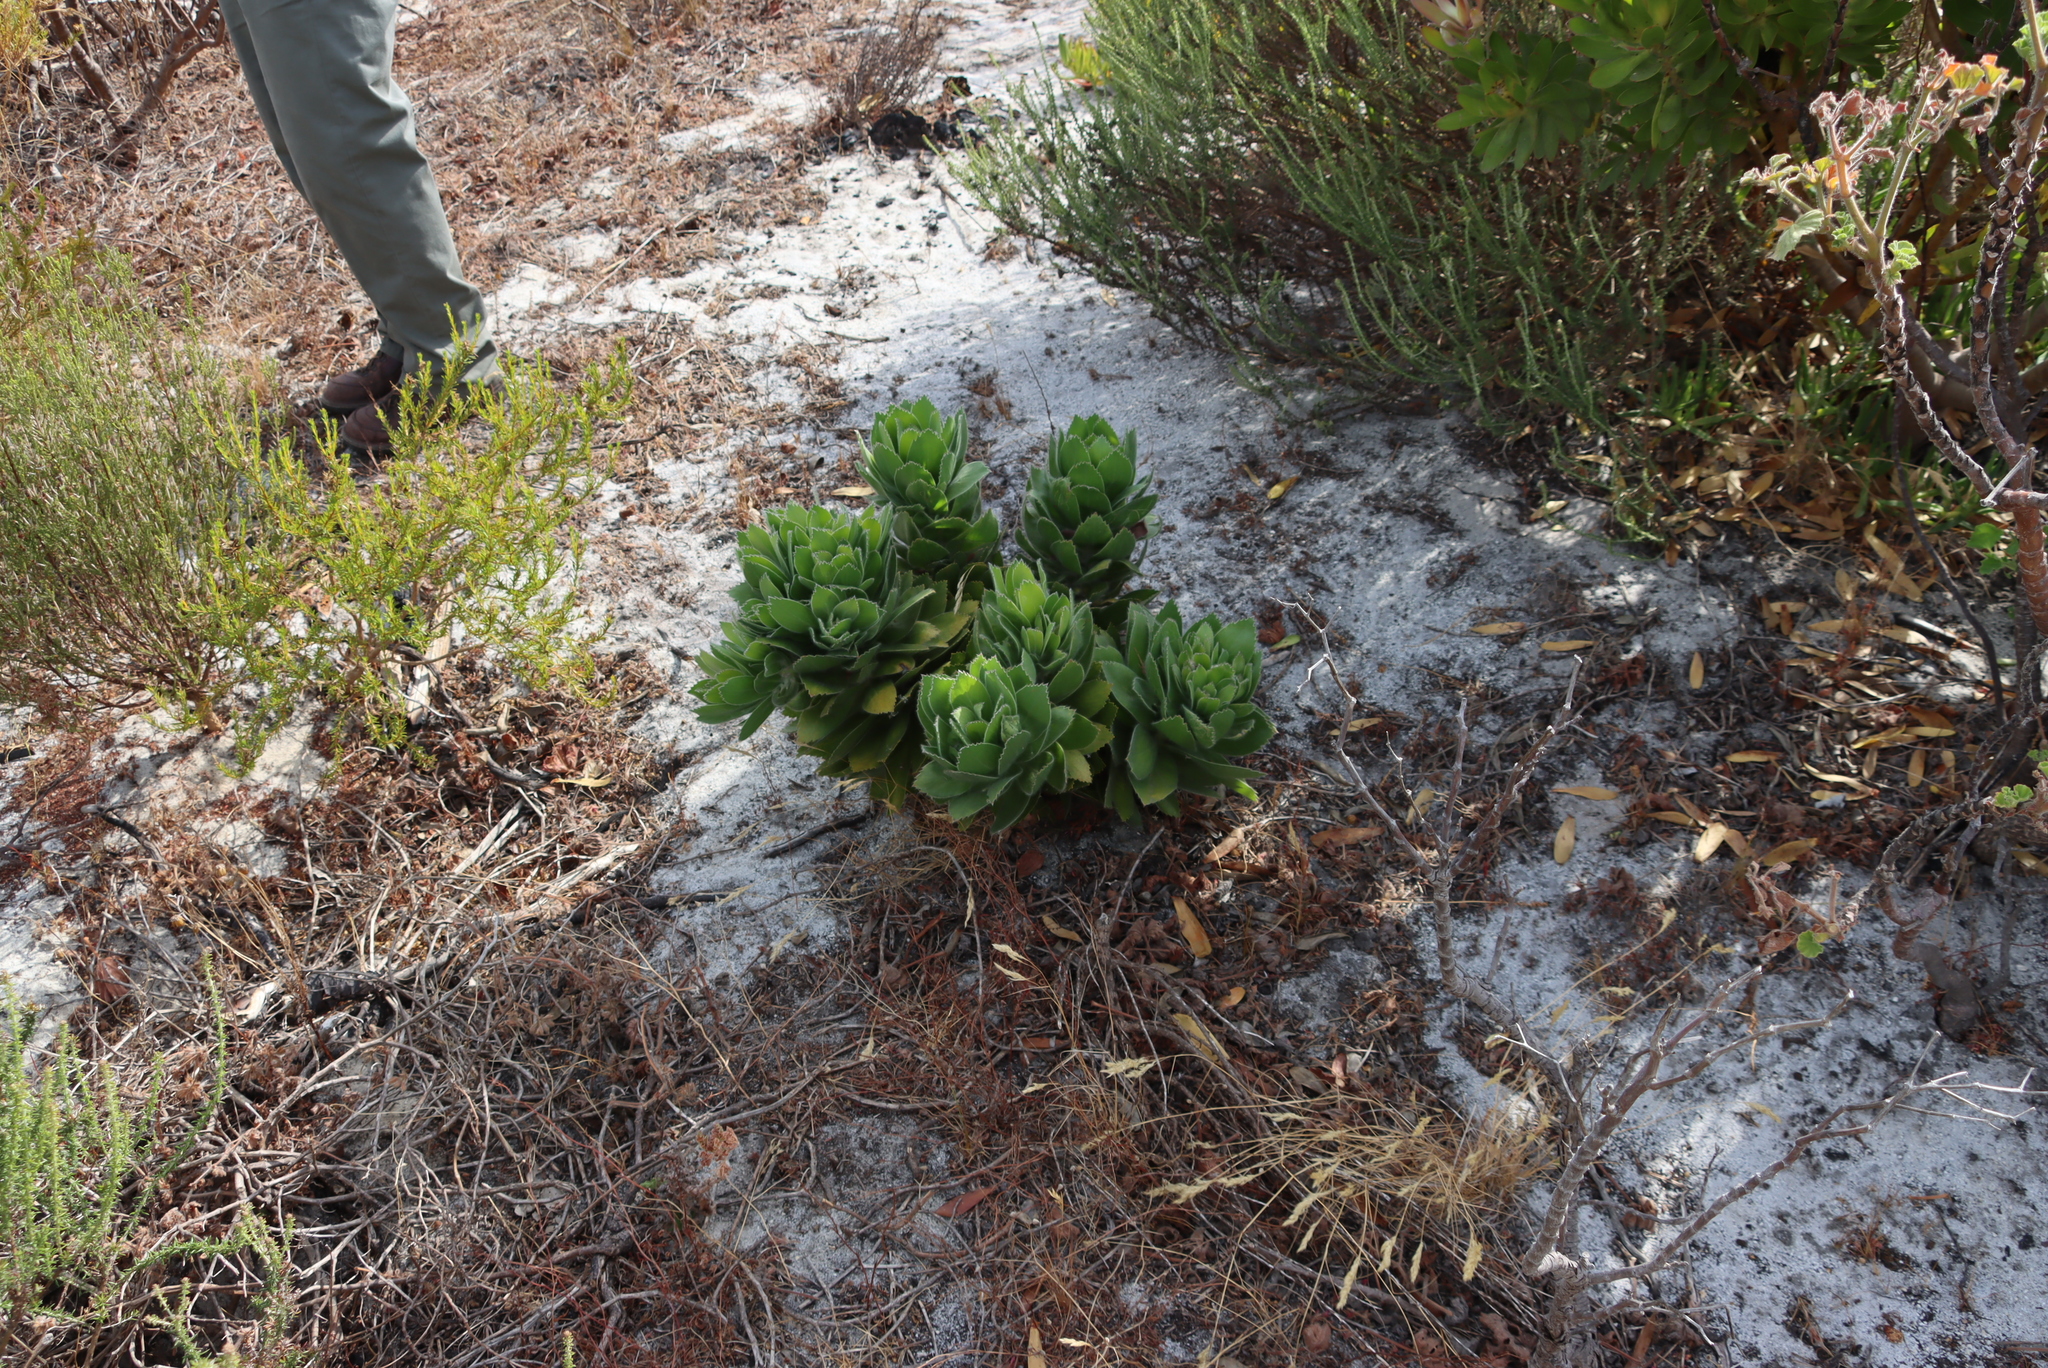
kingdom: Plantae
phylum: Tracheophyta
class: Magnoliopsida
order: Proteales
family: Proteaceae
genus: Leucospermum
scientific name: Leucospermum conocarpodendron
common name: Tree pincushion
